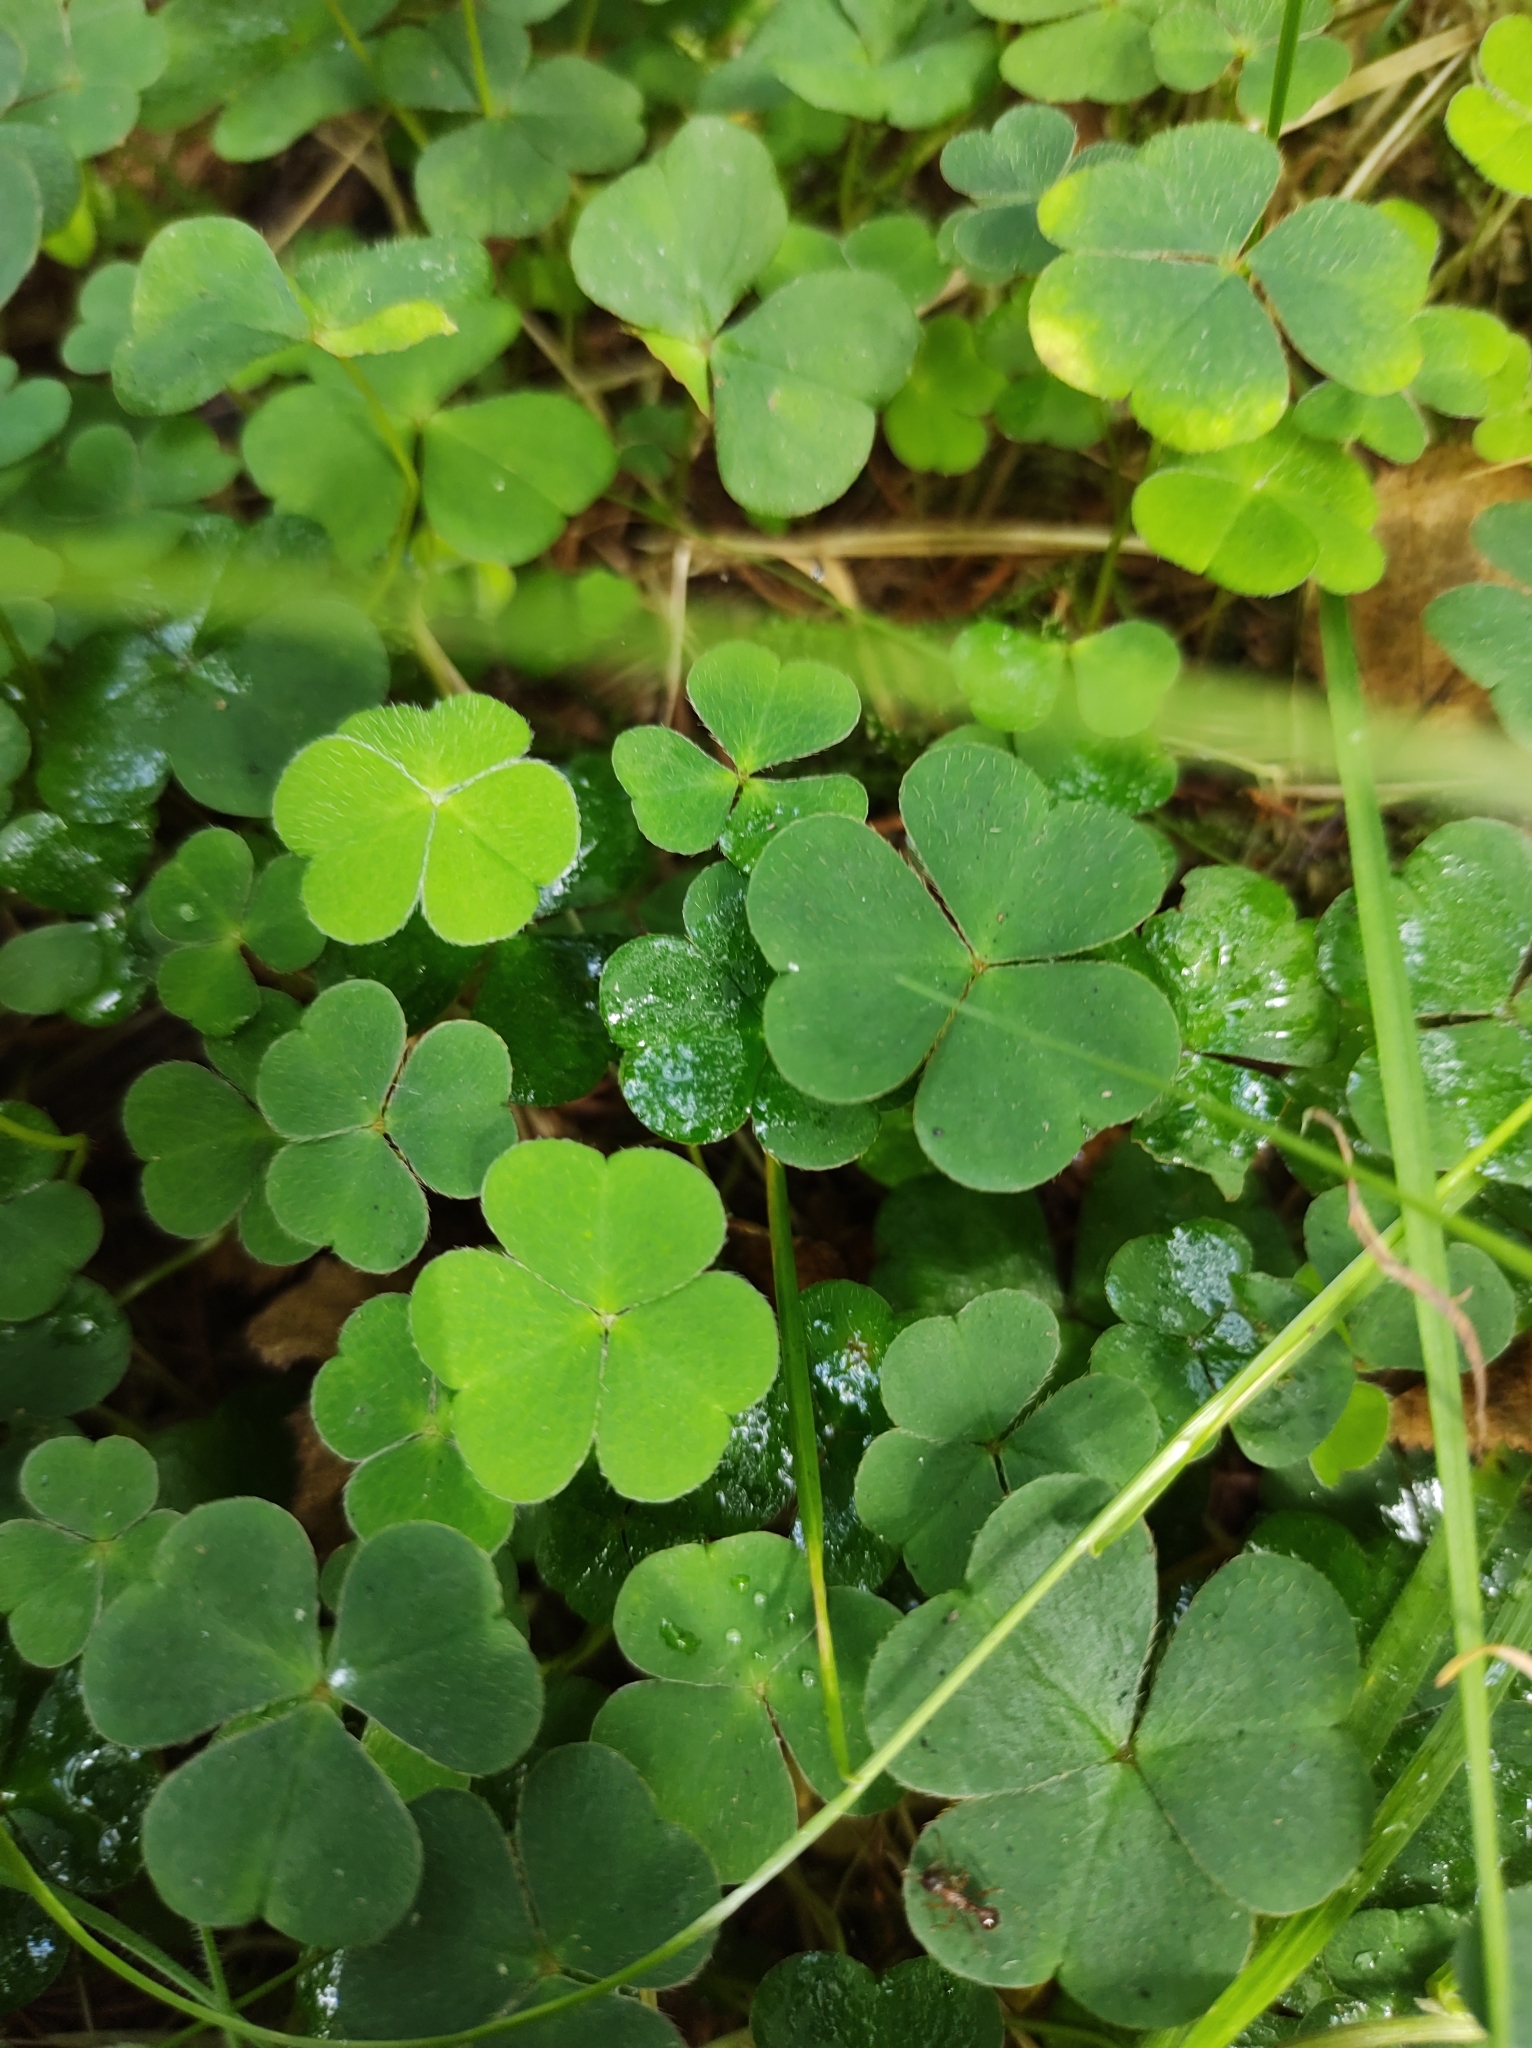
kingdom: Plantae
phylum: Tracheophyta
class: Magnoliopsida
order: Oxalidales
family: Oxalidaceae
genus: Oxalis
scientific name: Oxalis acetosella
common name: Wood-sorrel
